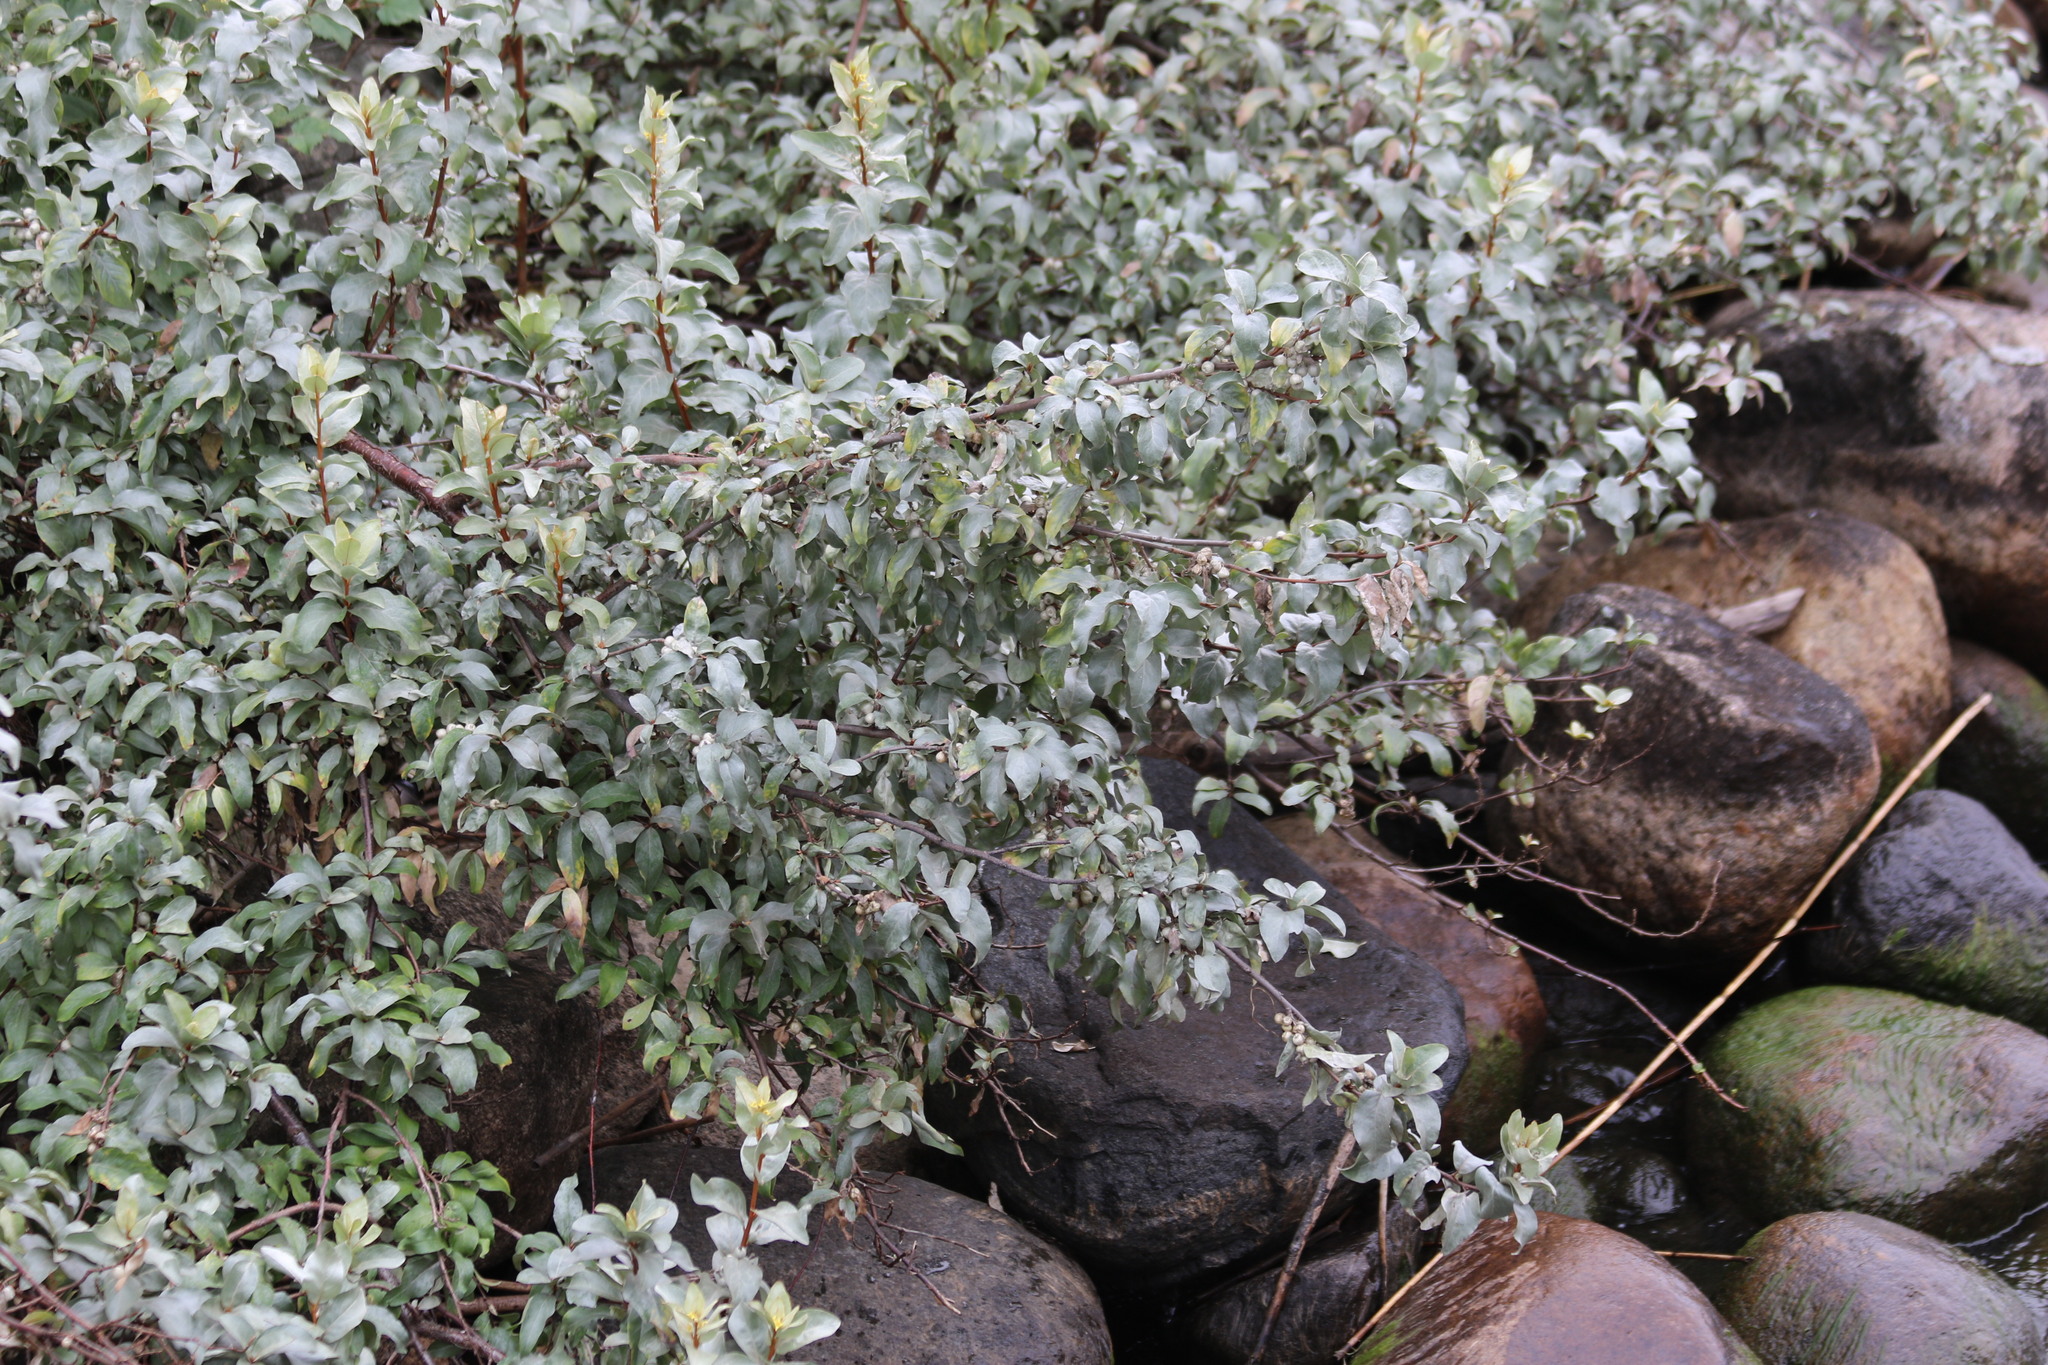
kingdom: Plantae
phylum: Tracheophyta
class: Magnoliopsida
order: Rosales
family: Elaeagnaceae
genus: Elaeagnus
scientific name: Elaeagnus commutata
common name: Silverberry
